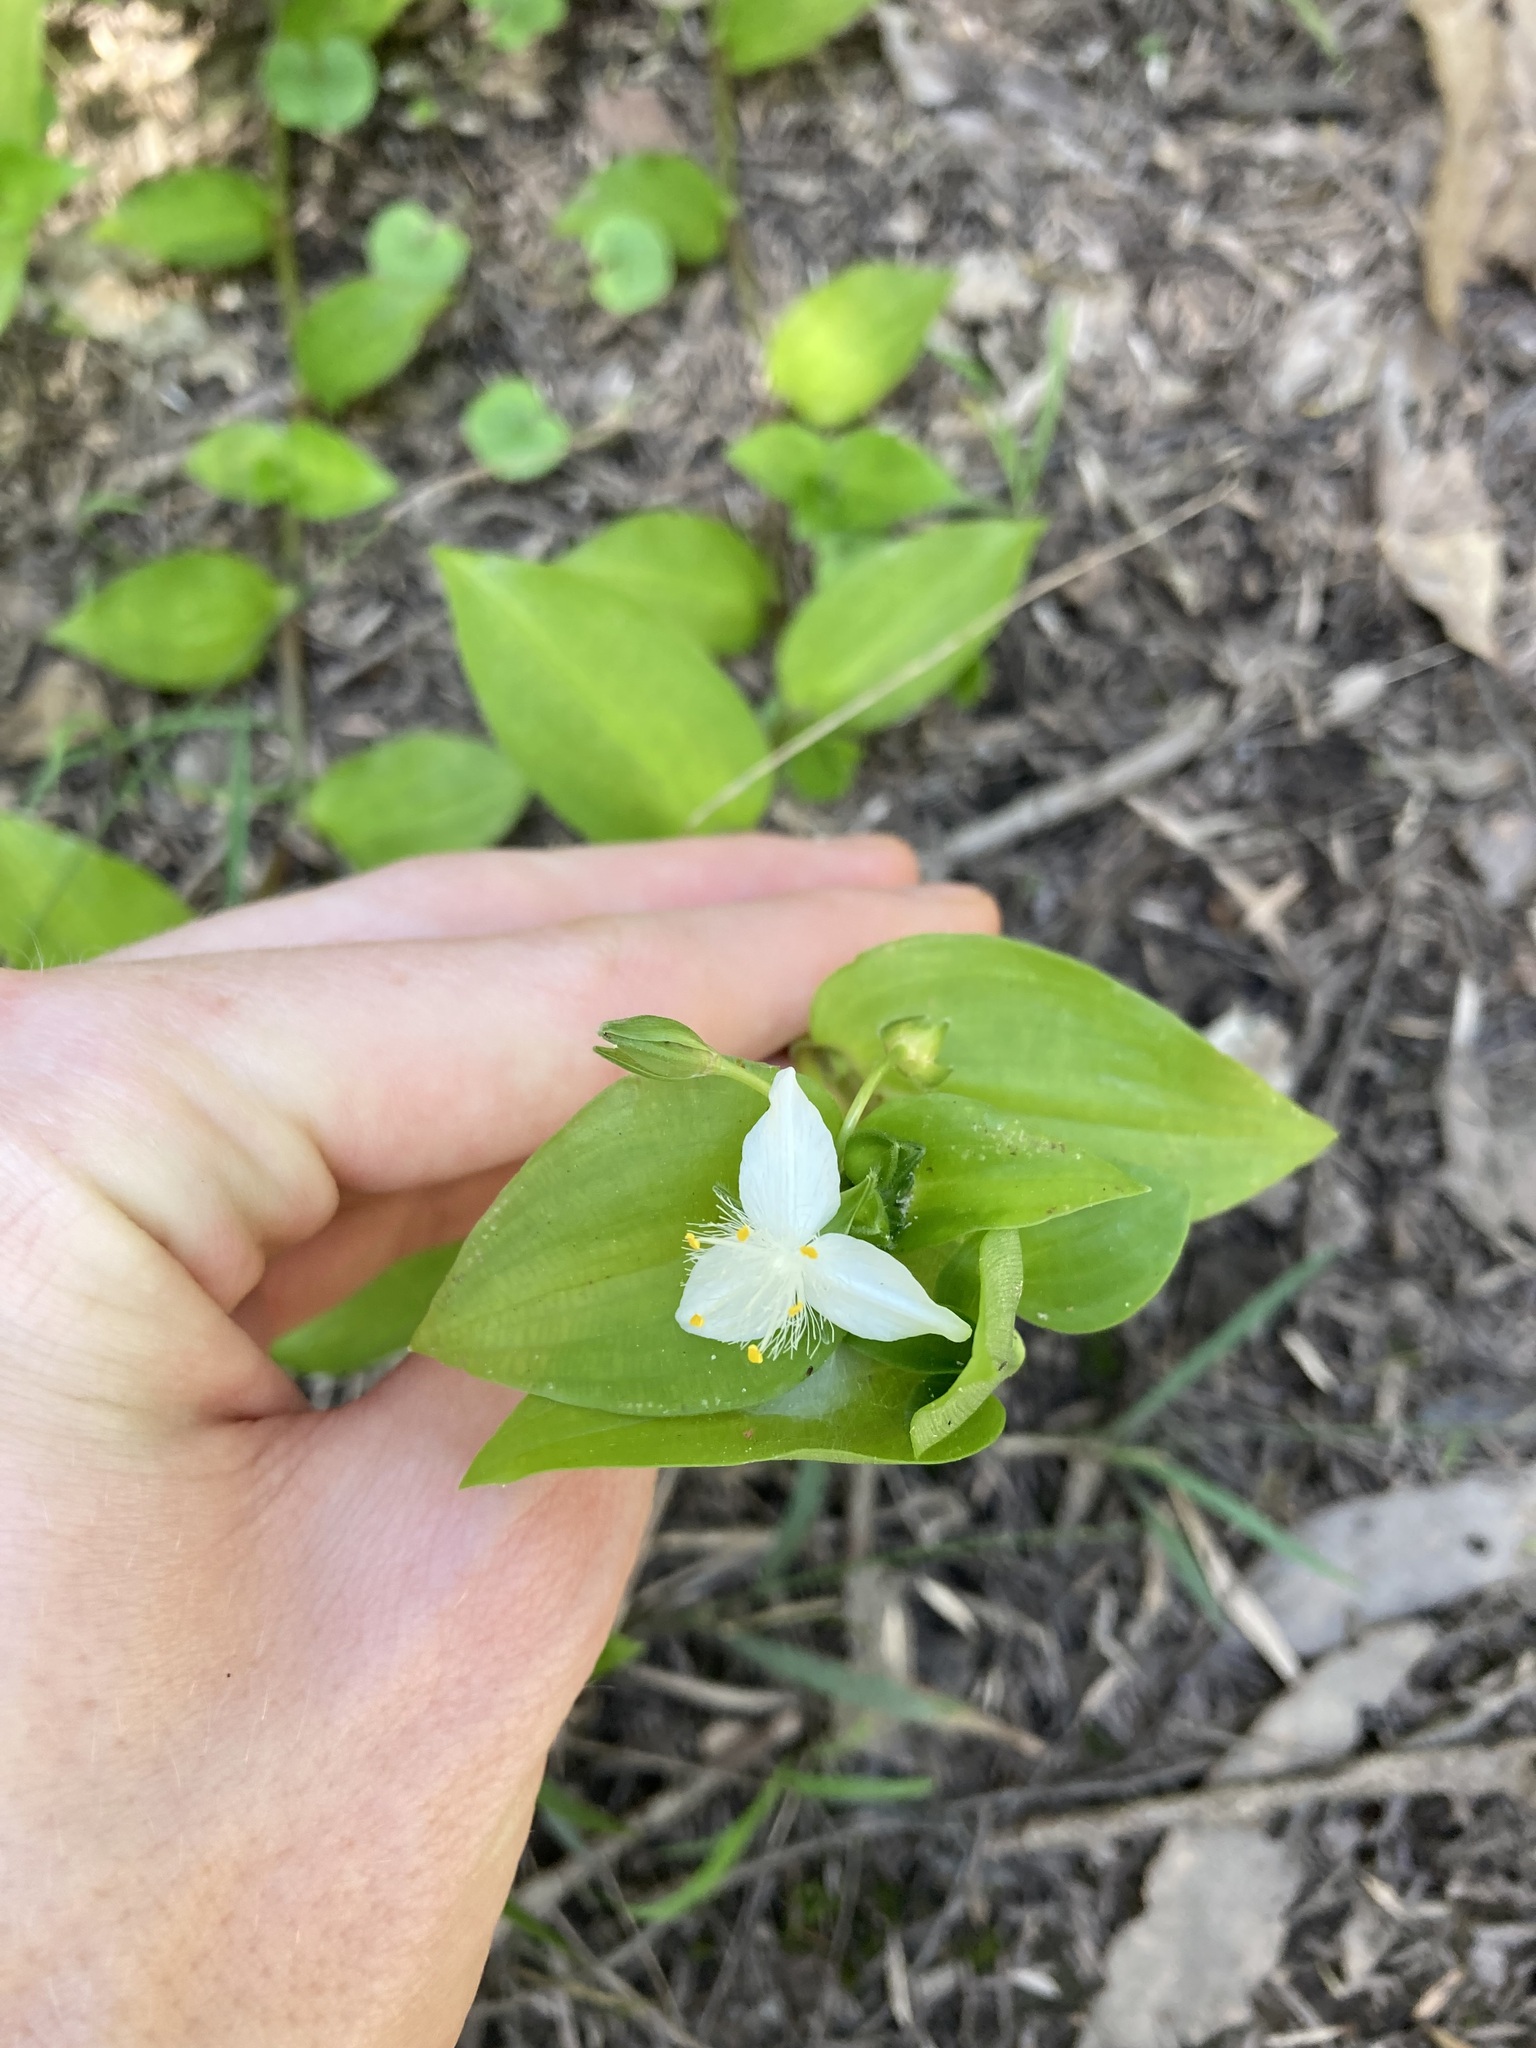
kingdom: Plantae
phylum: Tracheophyta
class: Liliopsida
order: Commelinales
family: Commelinaceae
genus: Tradescantia
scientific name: Tradescantia fluminensis
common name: Wandering-jew
